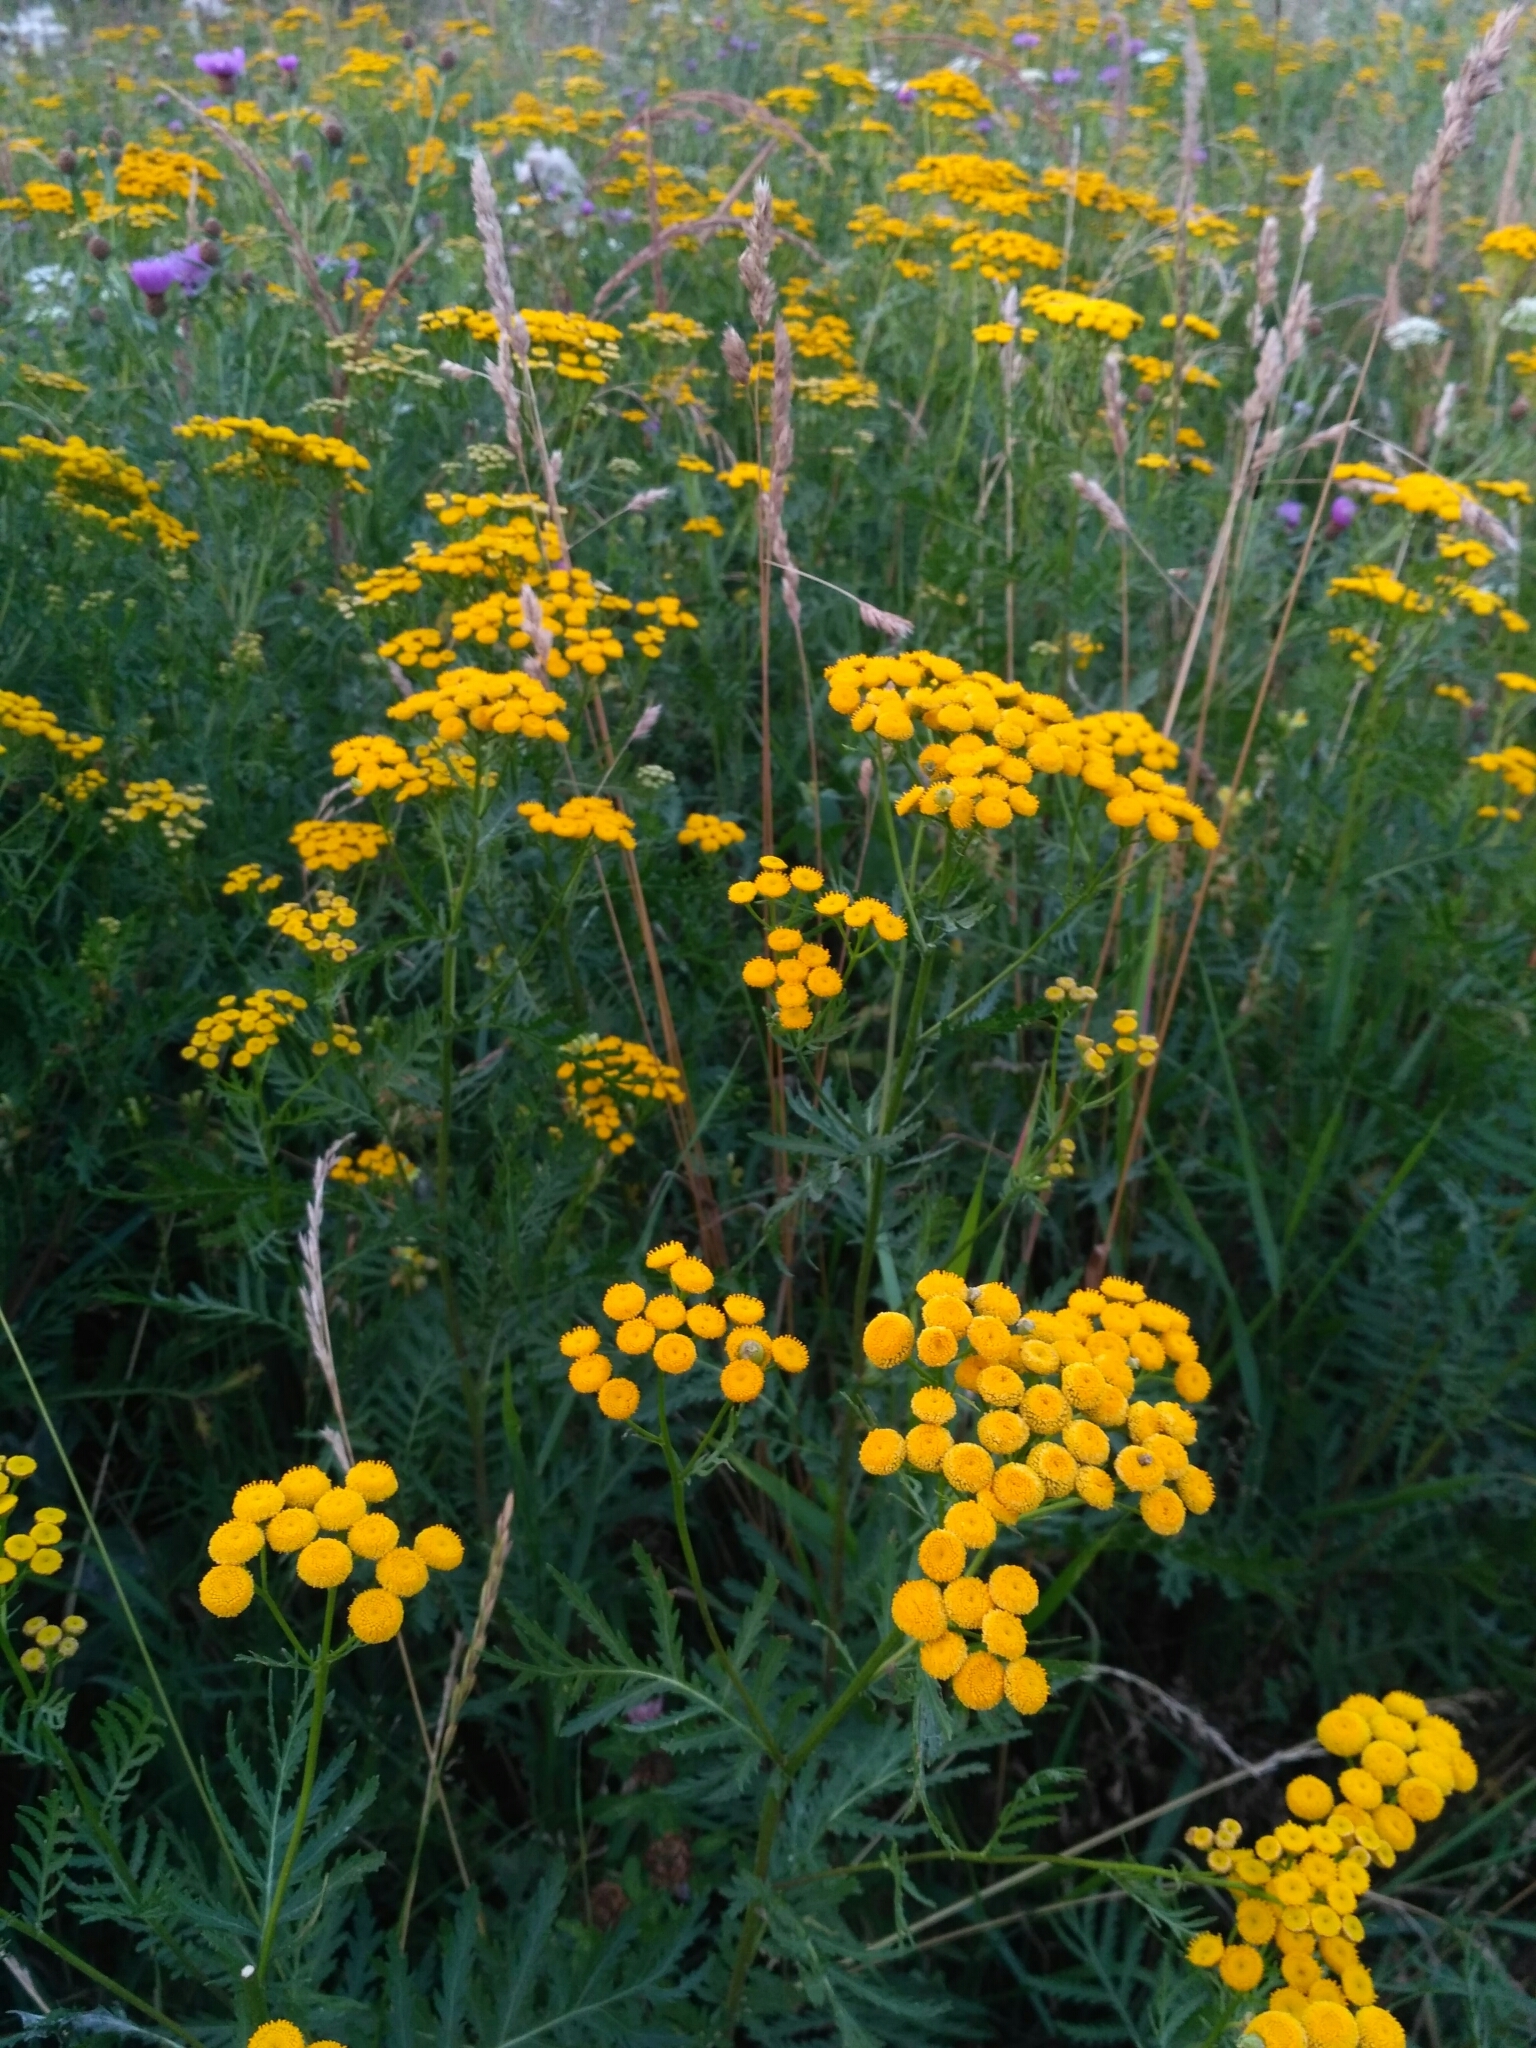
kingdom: Plantae
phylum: Tracheophyta
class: Magnoliopsida
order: Asterales
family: Asteraceae
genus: Tanacetum
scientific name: Tanacetum vulgare
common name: Common tansy
